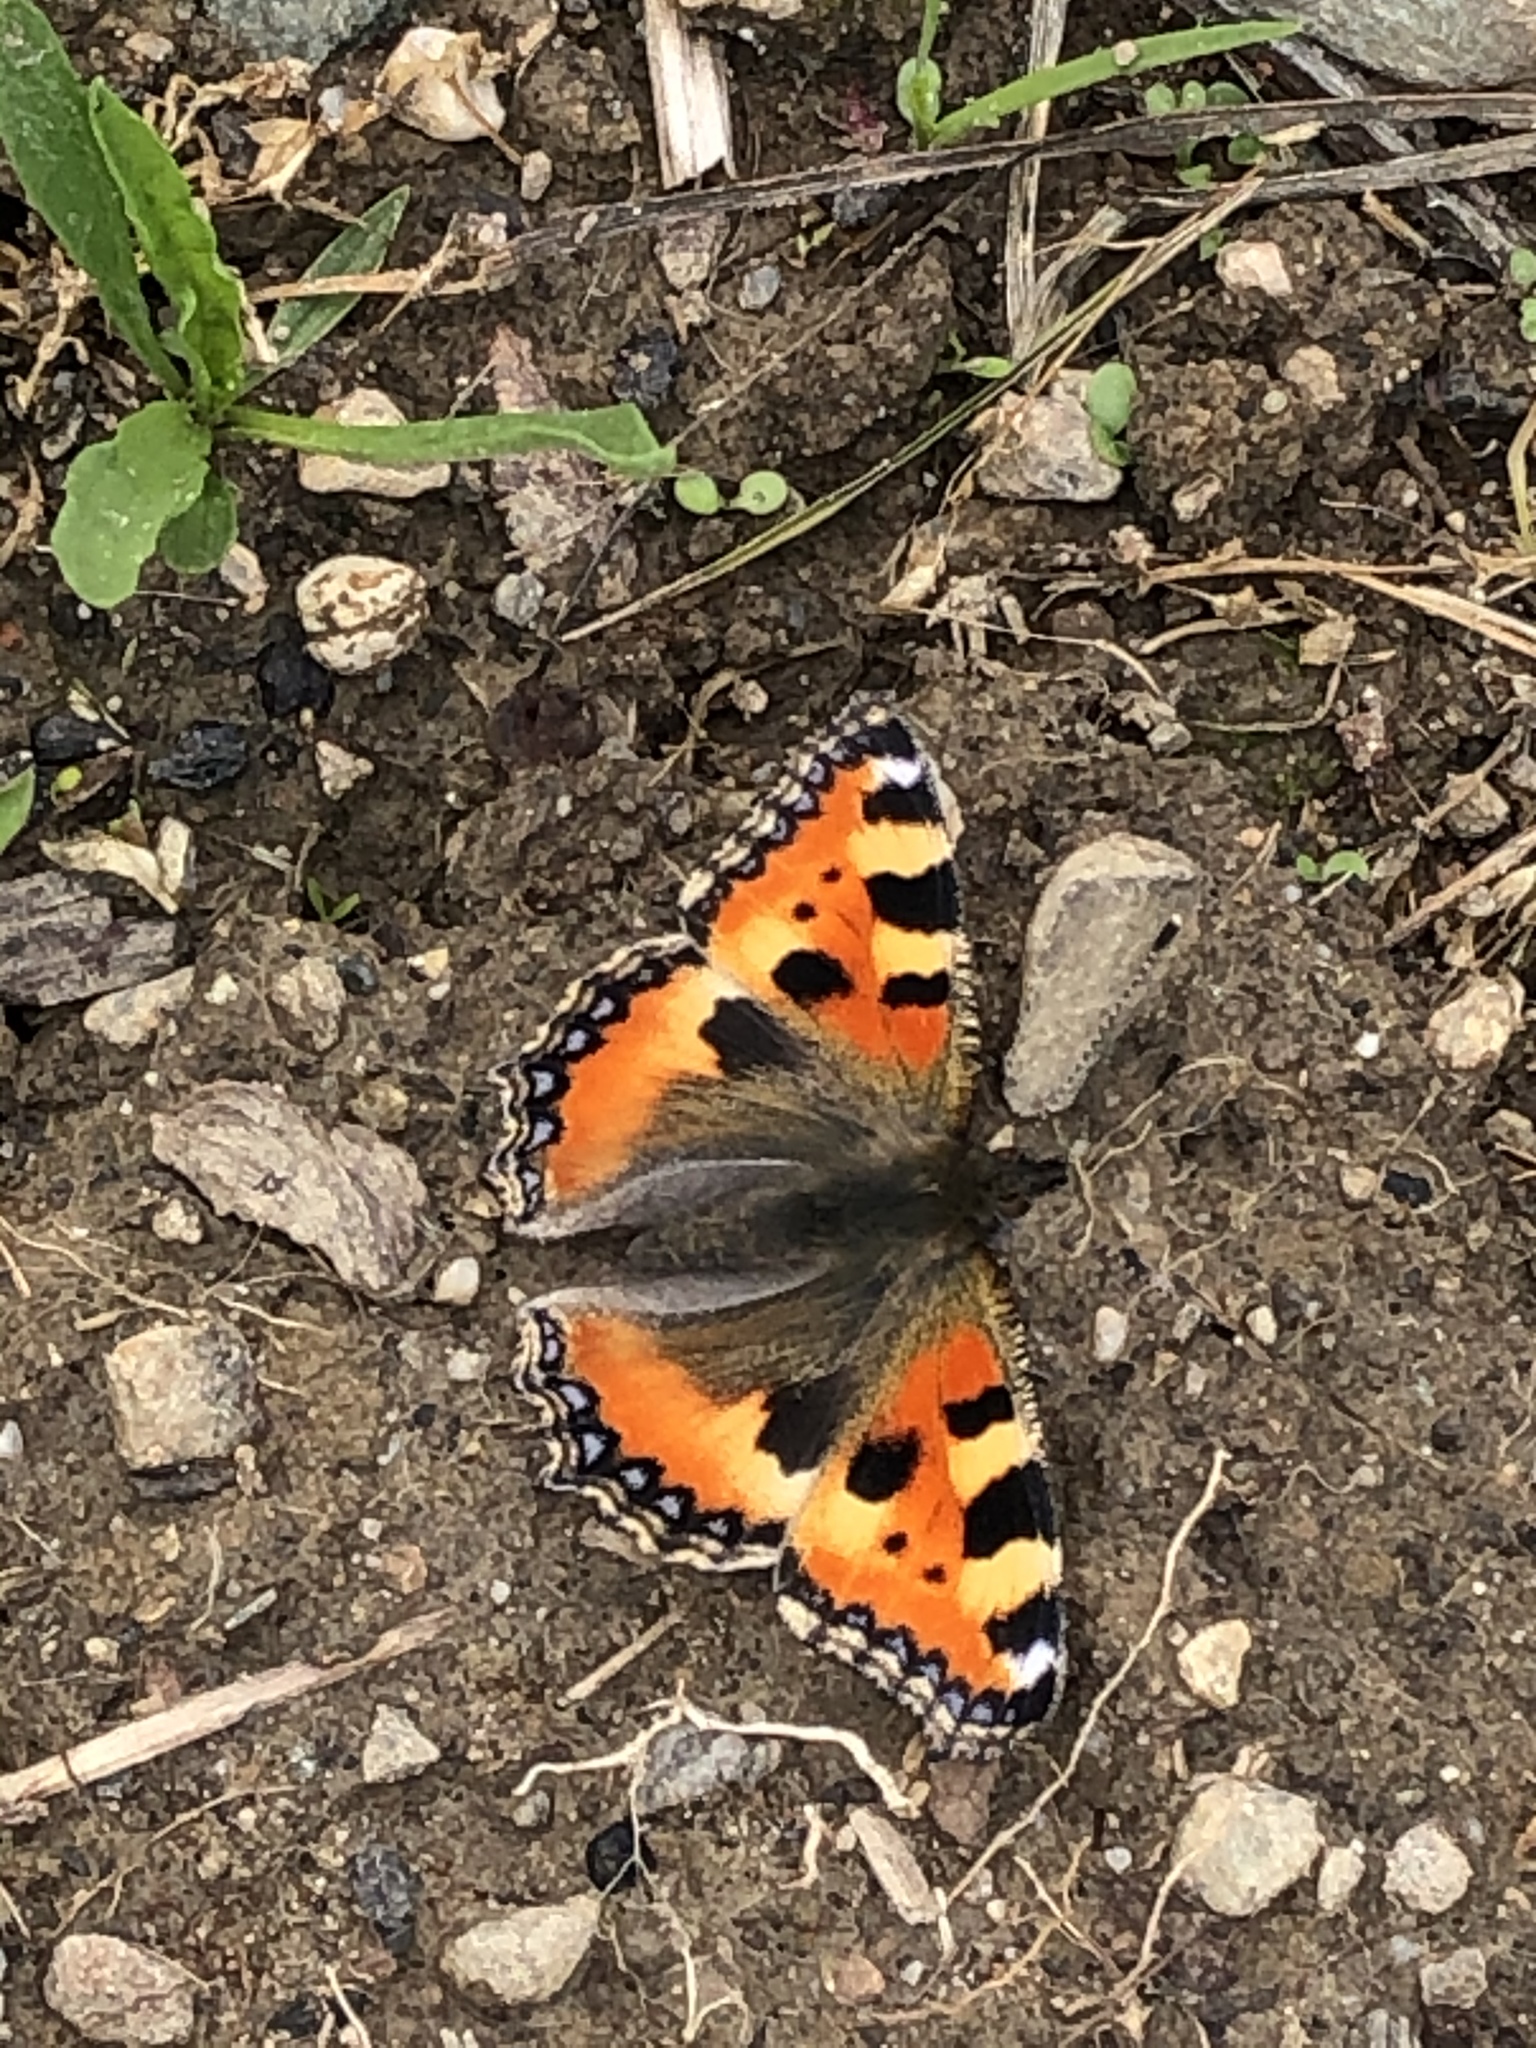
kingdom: Animalia
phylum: Arthropoda
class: Insecta
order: Lepidoptera
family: Nymphalidae
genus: Aglais
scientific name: Aglais urticae
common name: Small tortoiseshell
